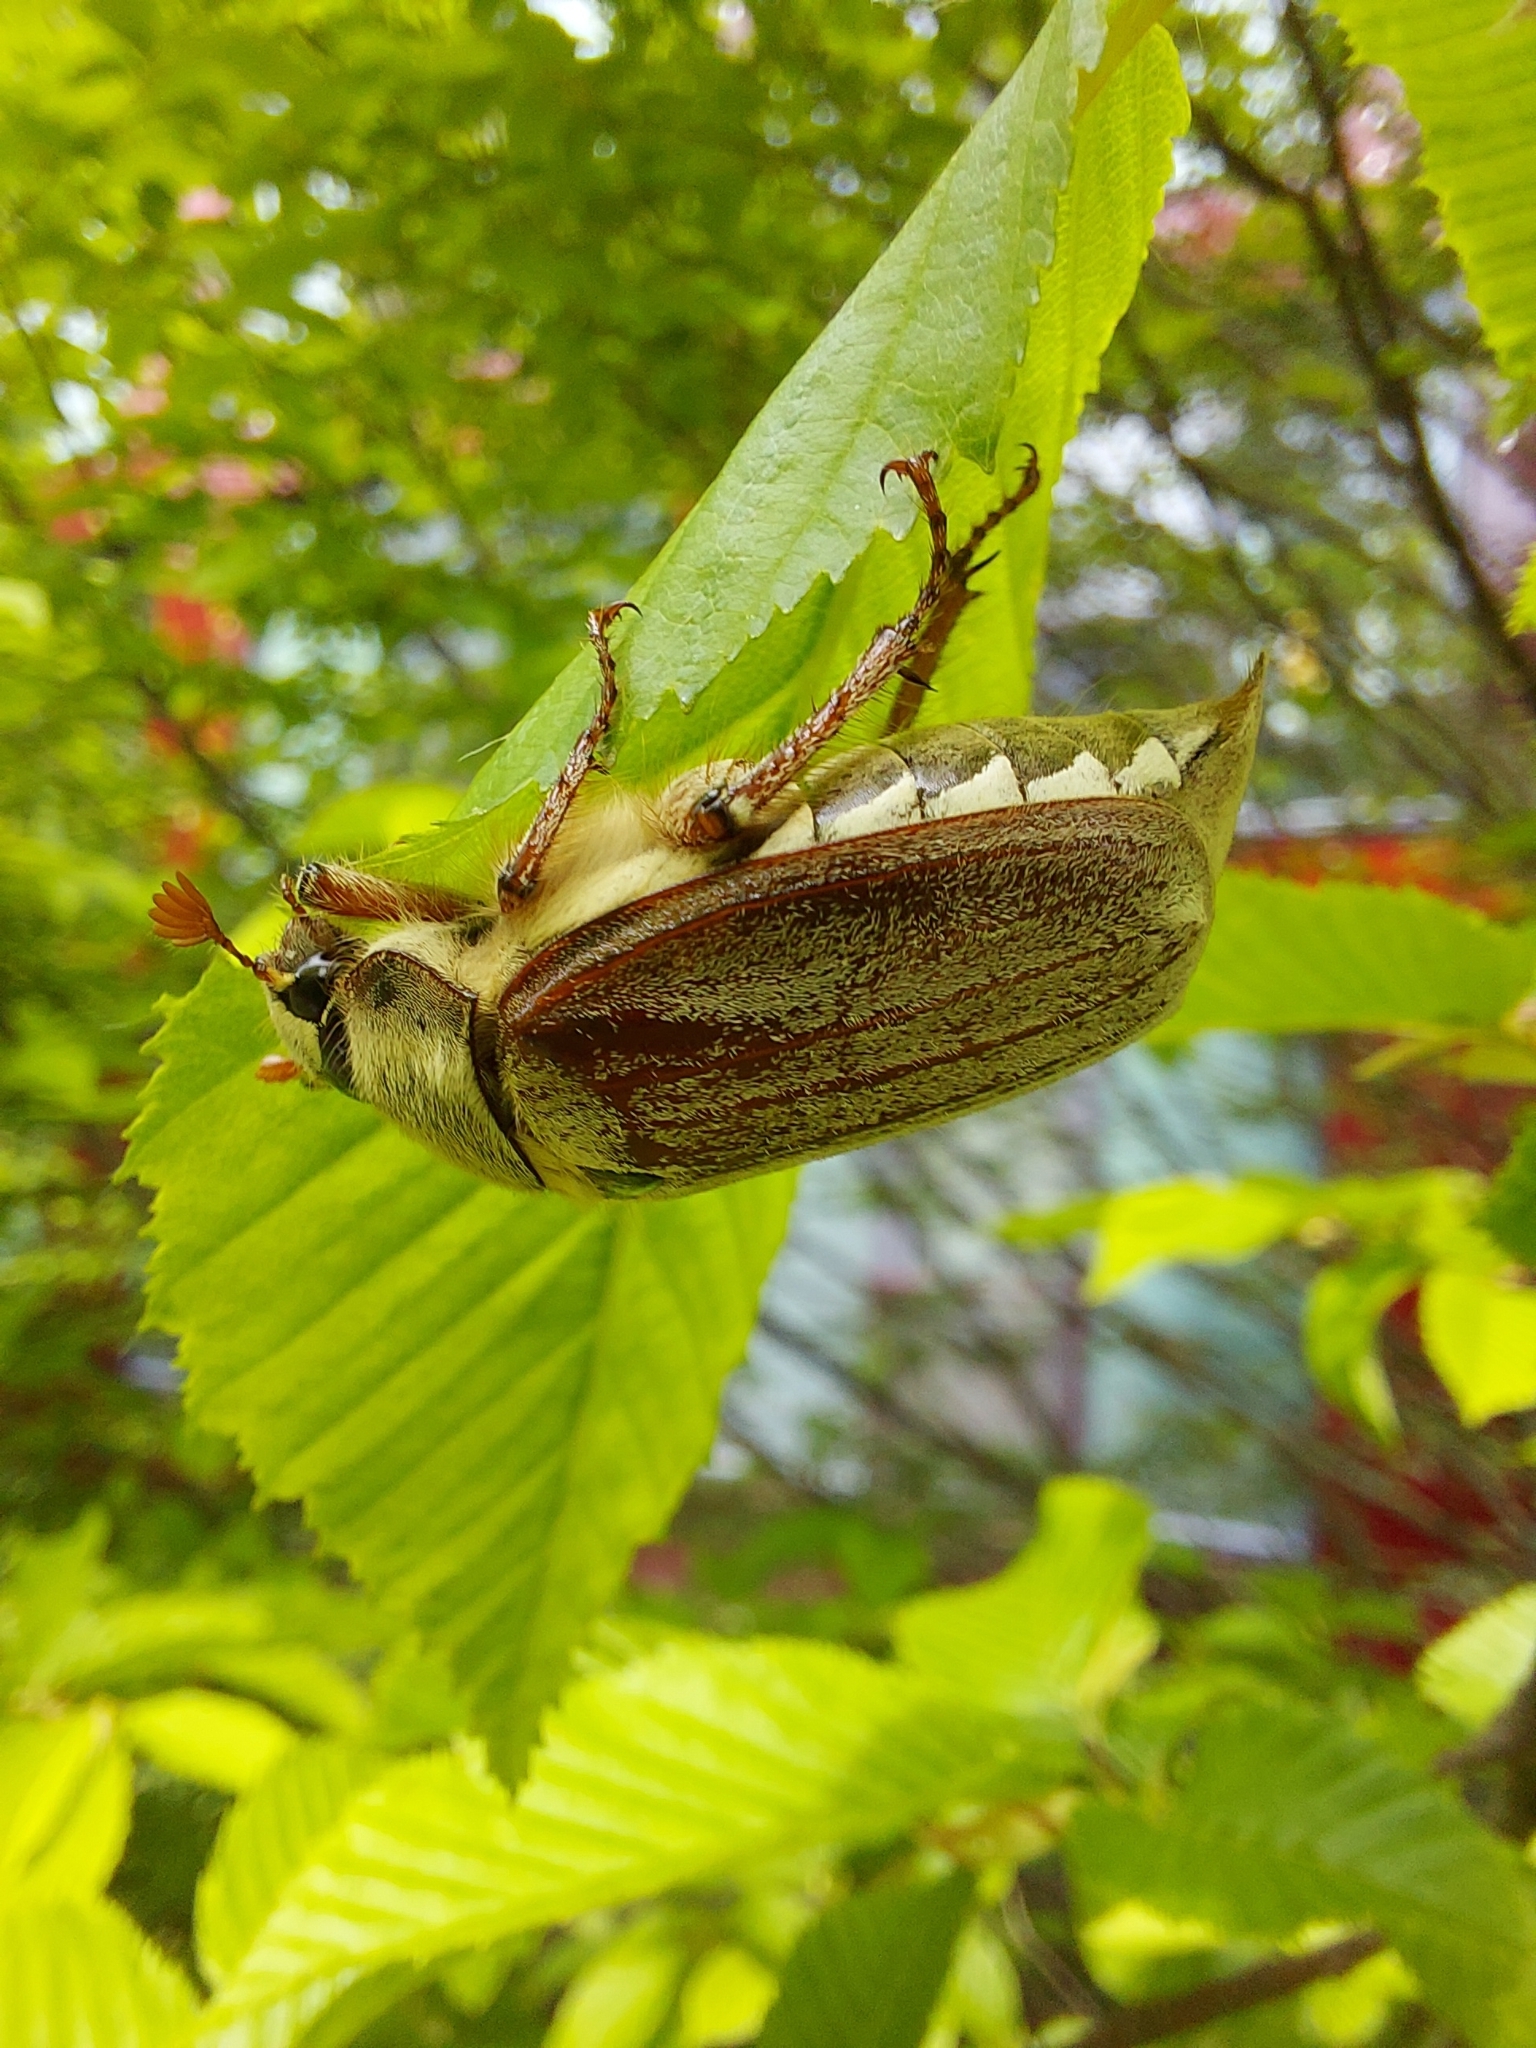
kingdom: Animalia
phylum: Arthropoda
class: Insecta
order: Coleoptera
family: Scarabaeidae
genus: Melolontha
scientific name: Melolontha melolontha
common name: Cockchafer maybeetle
